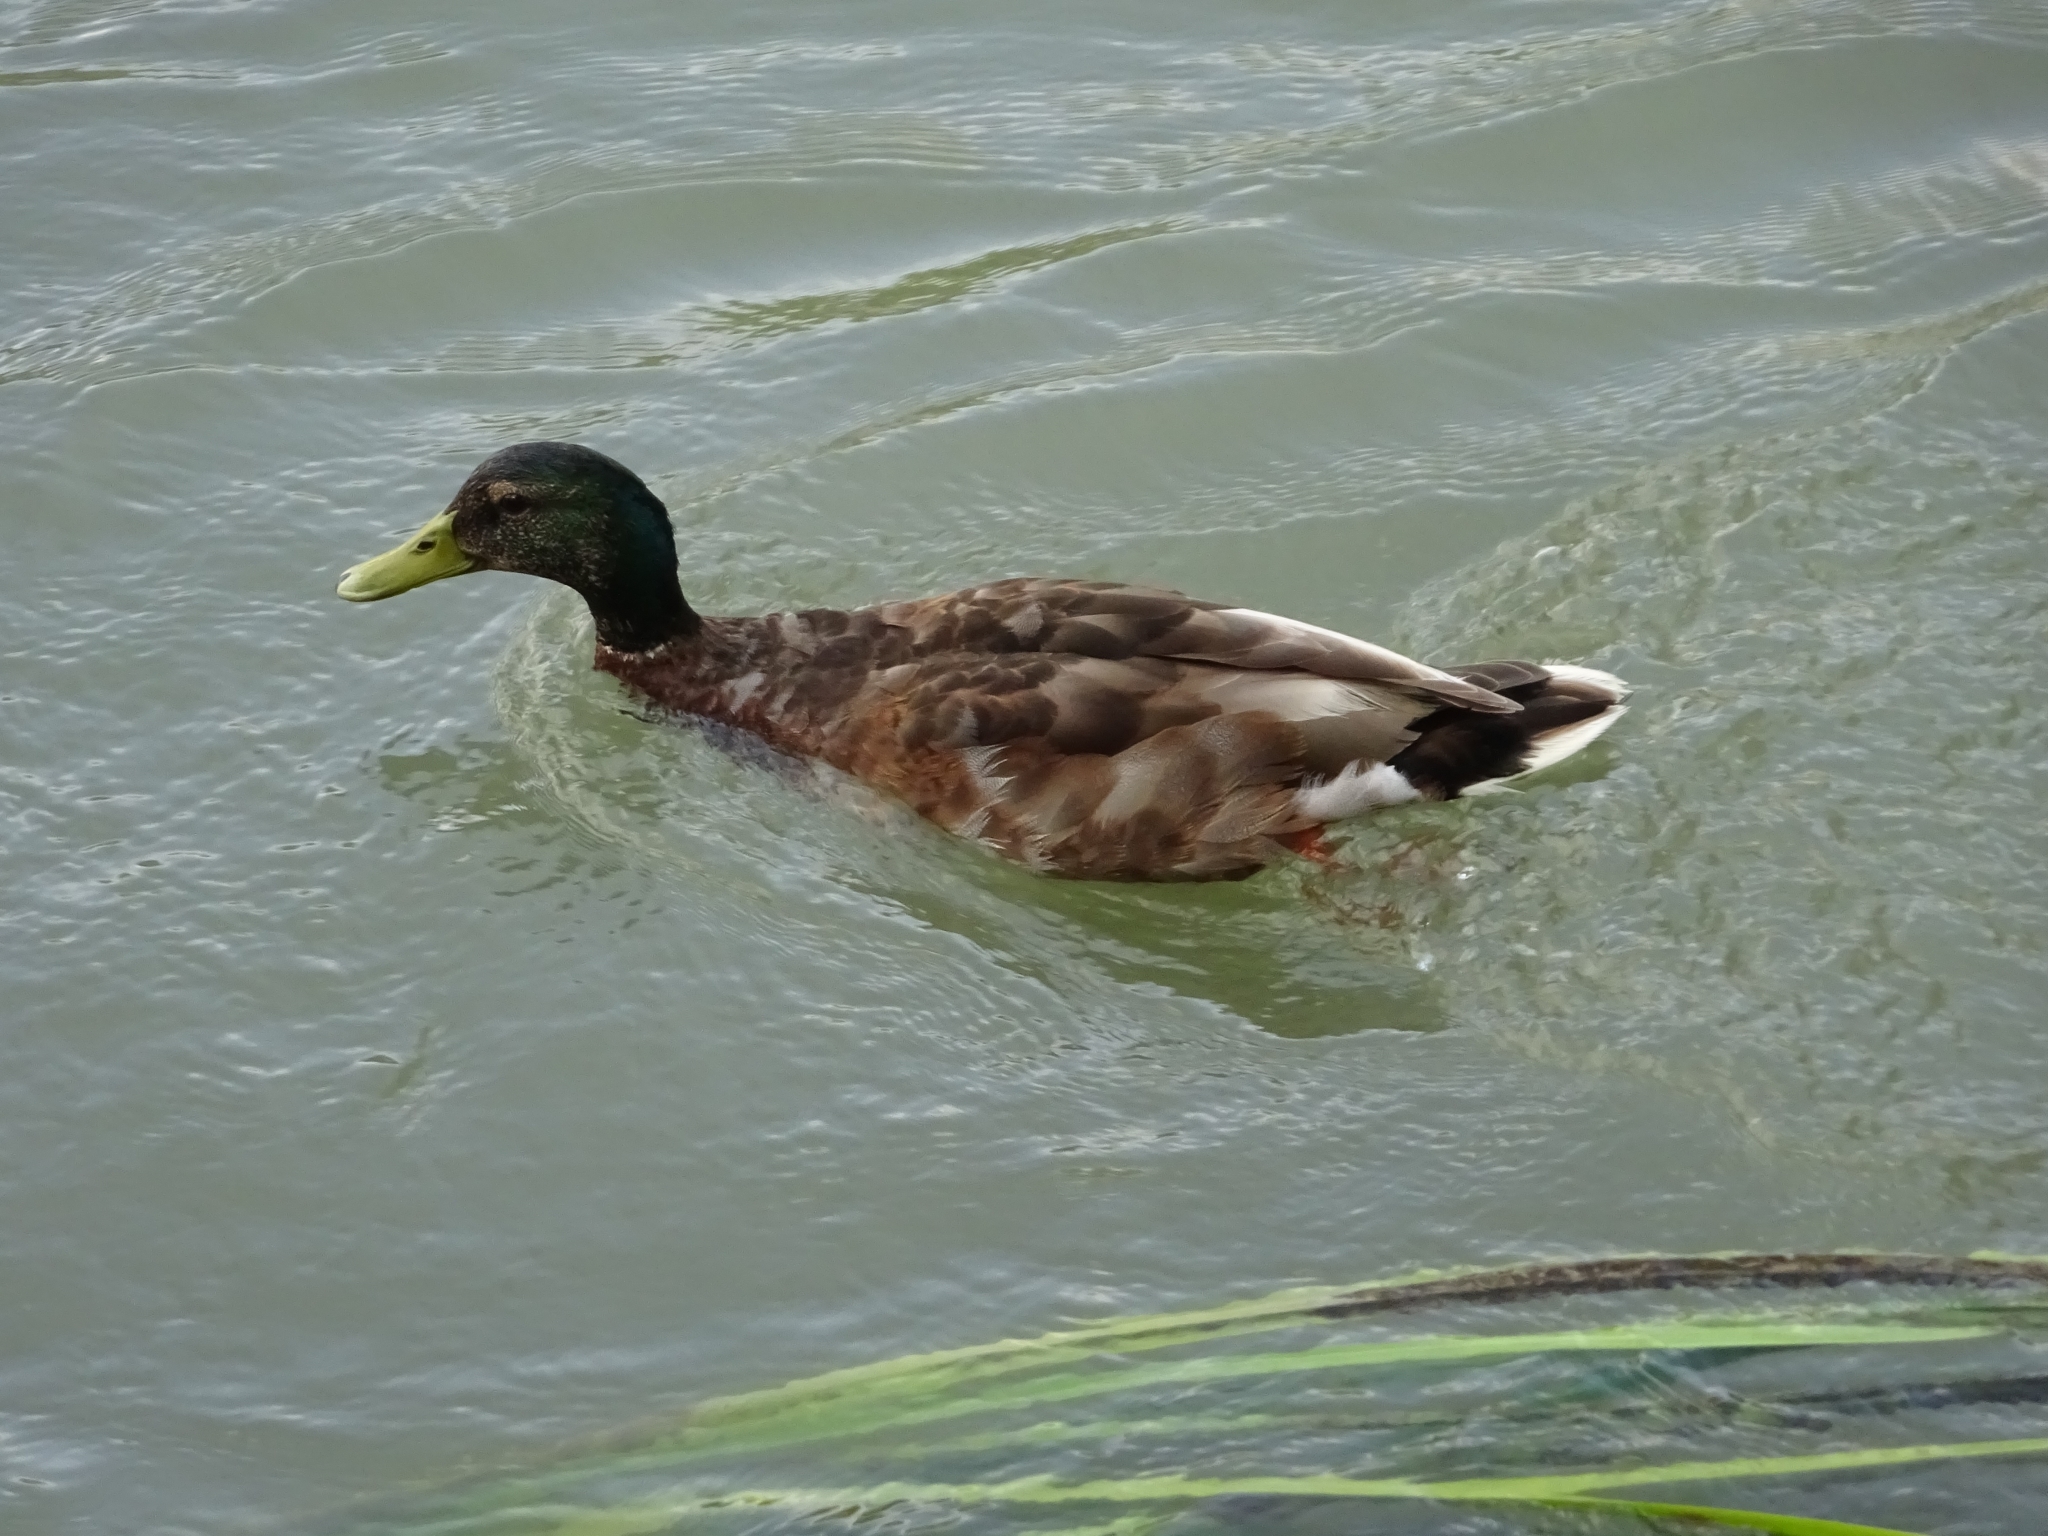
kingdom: Animalia
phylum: Chordata
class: Aves
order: Anseriformes
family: Anatidae
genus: Anas
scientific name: Anas platyrhynchos
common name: Mallard
